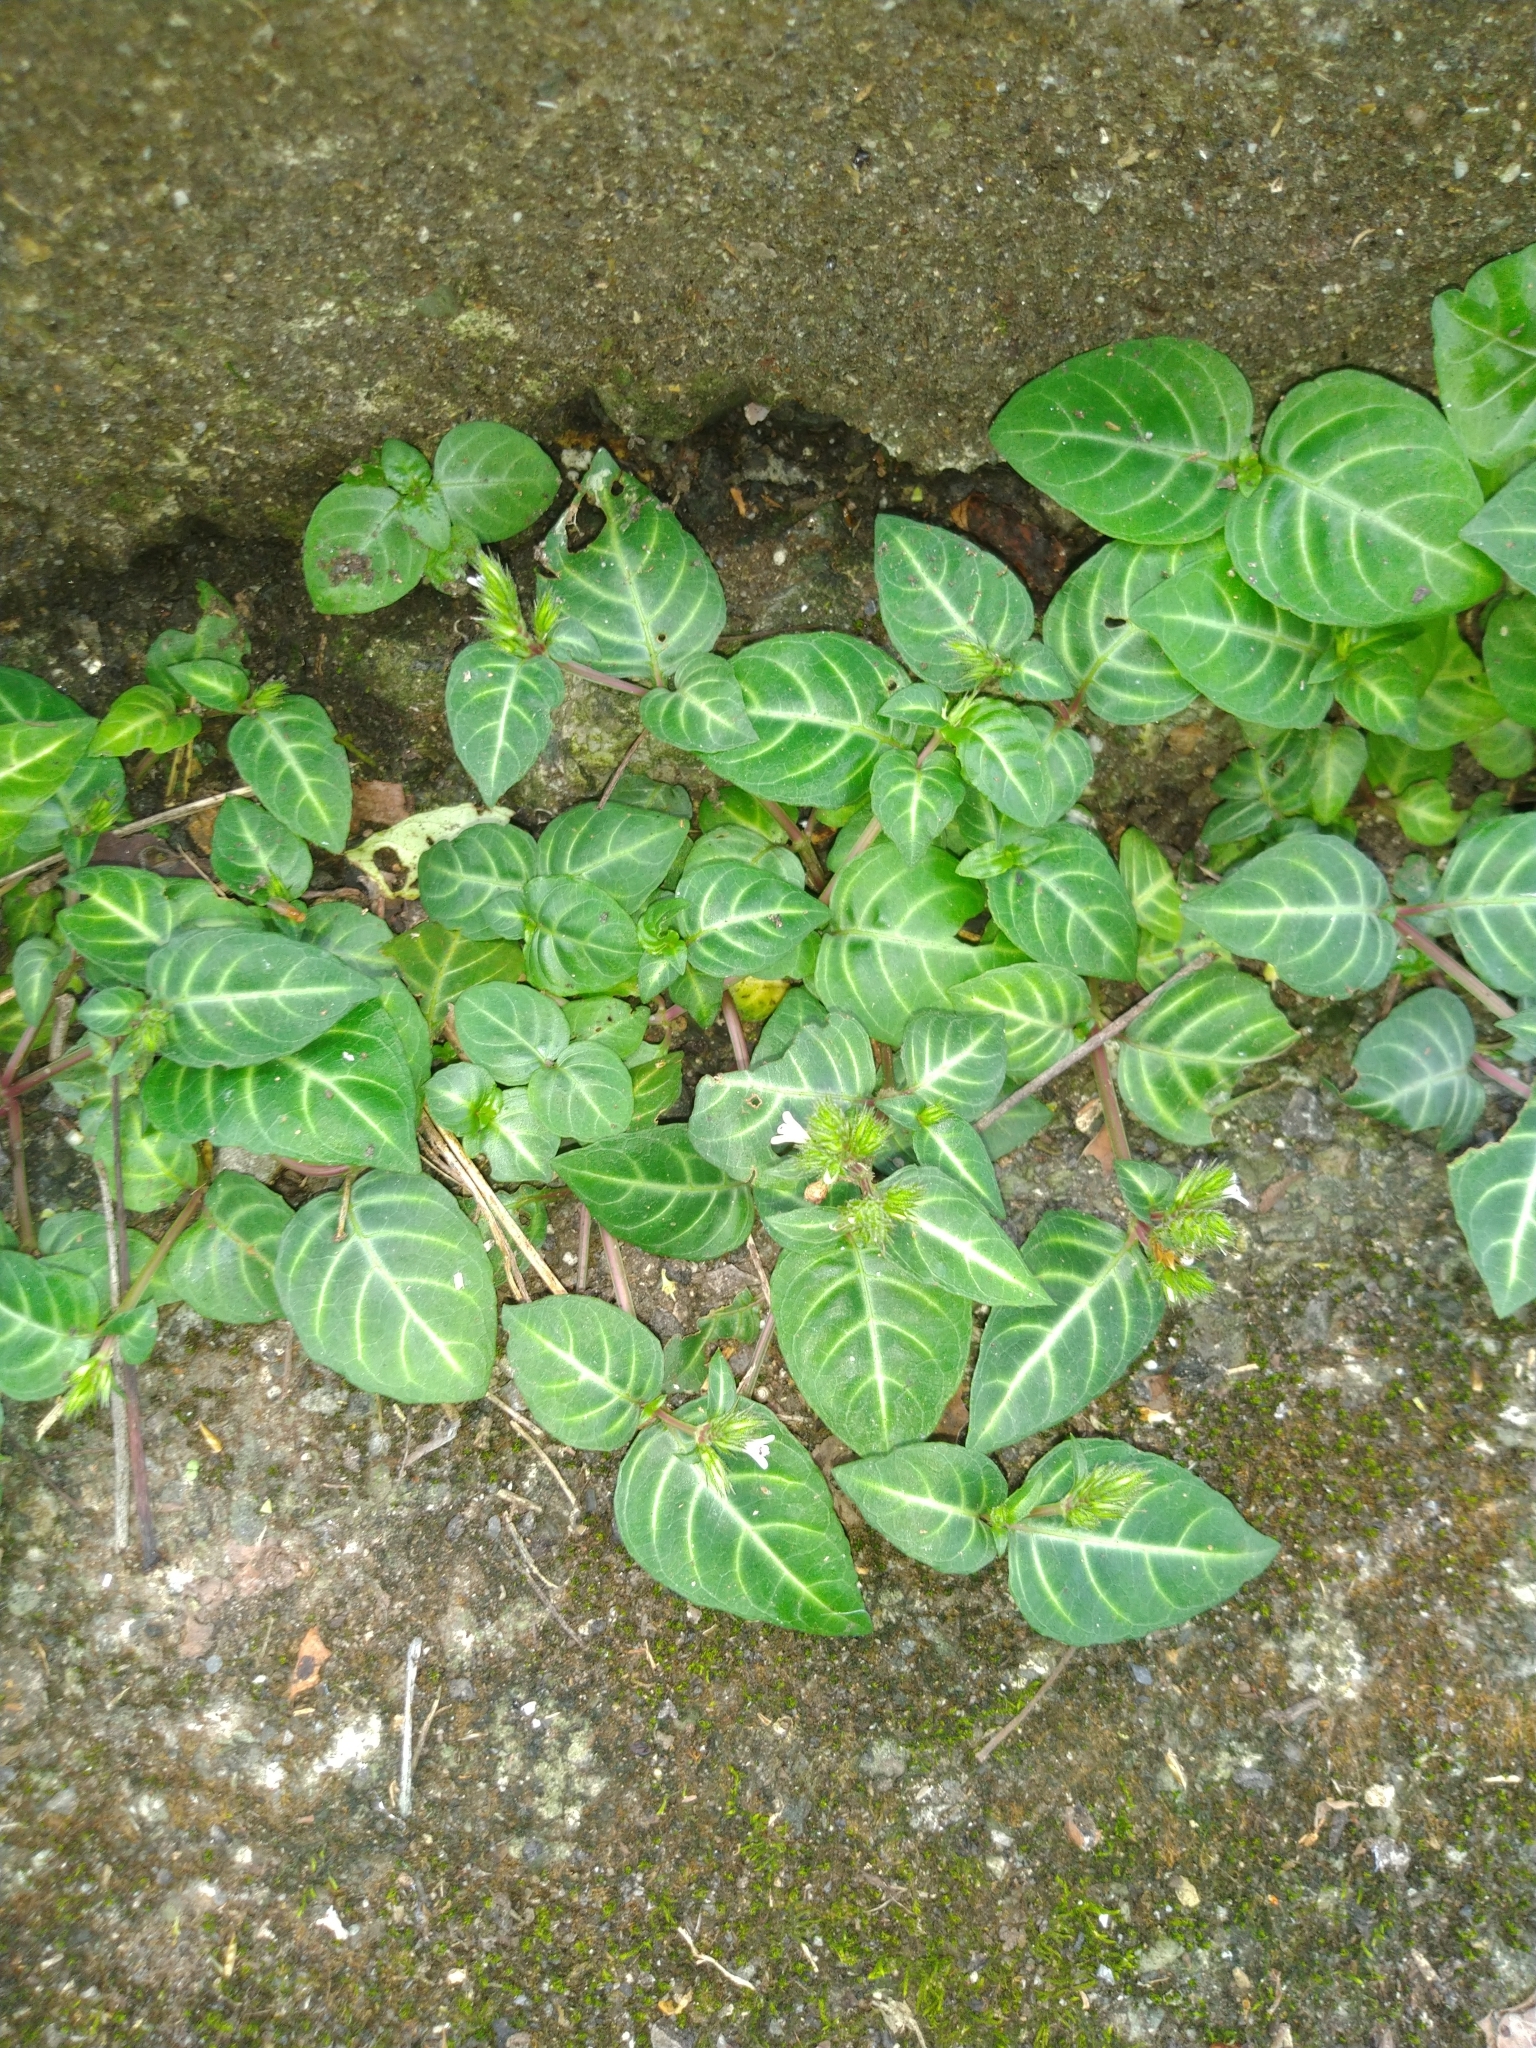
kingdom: Plantae
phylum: Tracheophyta
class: Magnoliopsida
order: Lamiales
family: Acanthaceae
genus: Lepidagathis
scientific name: Lepidagathis inaequalis
